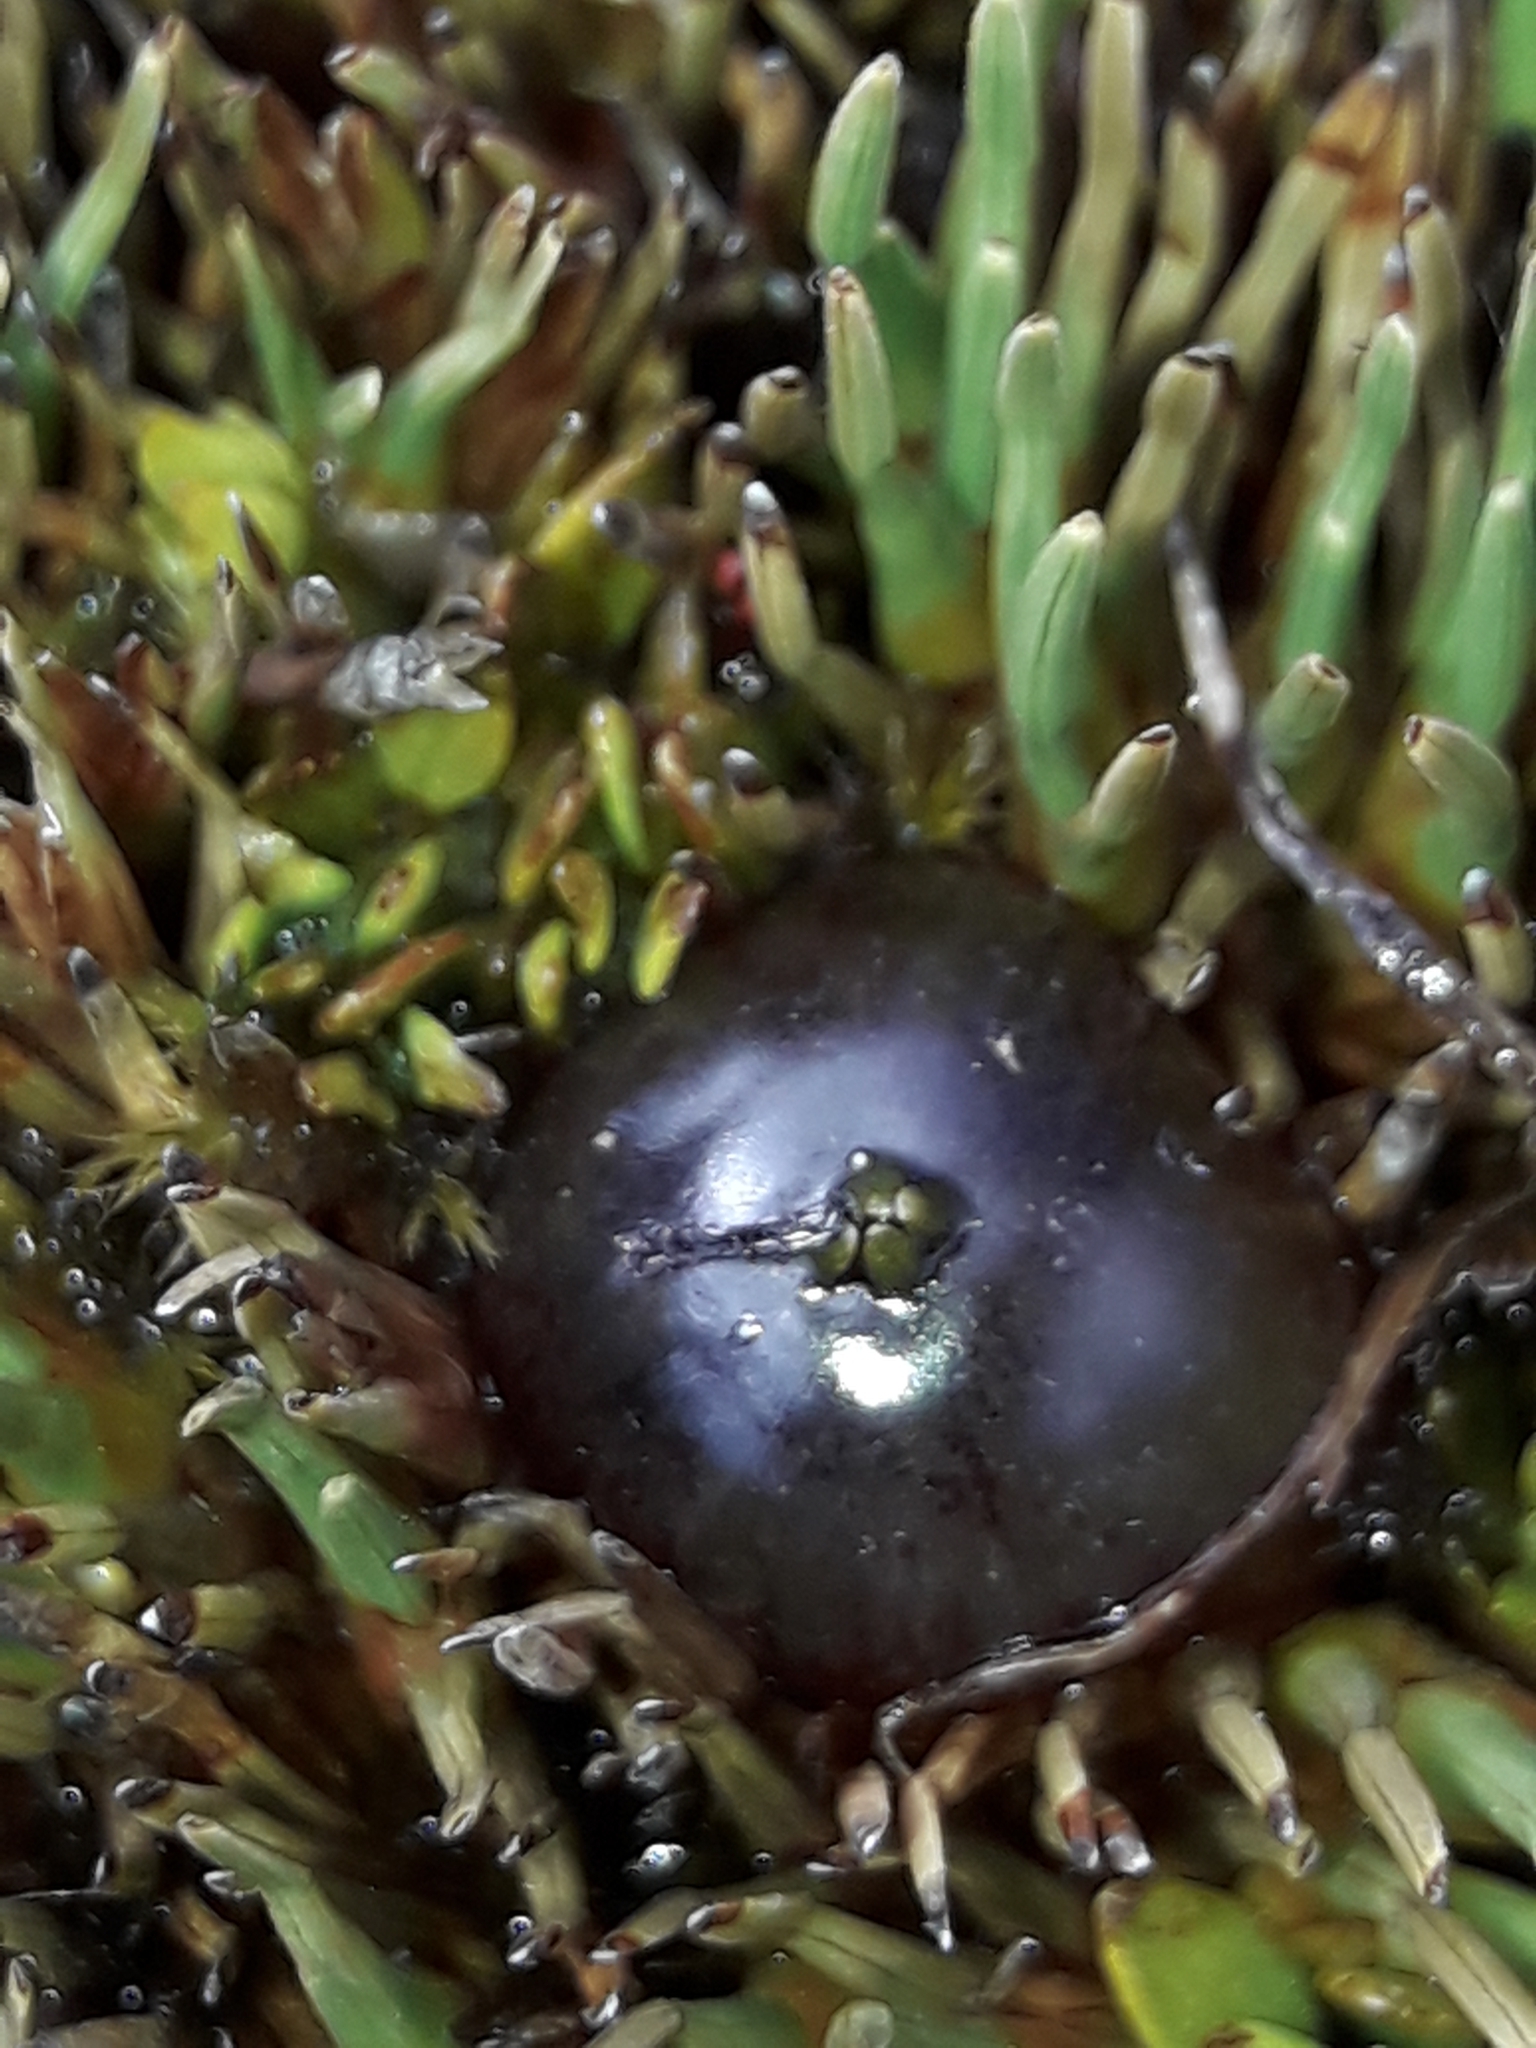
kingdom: Plantae
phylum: Tracheophyta
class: Magnoliopsida
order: Gentianales
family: Rubiaceae
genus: Coprosma
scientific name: Coprosma atropurpurea
